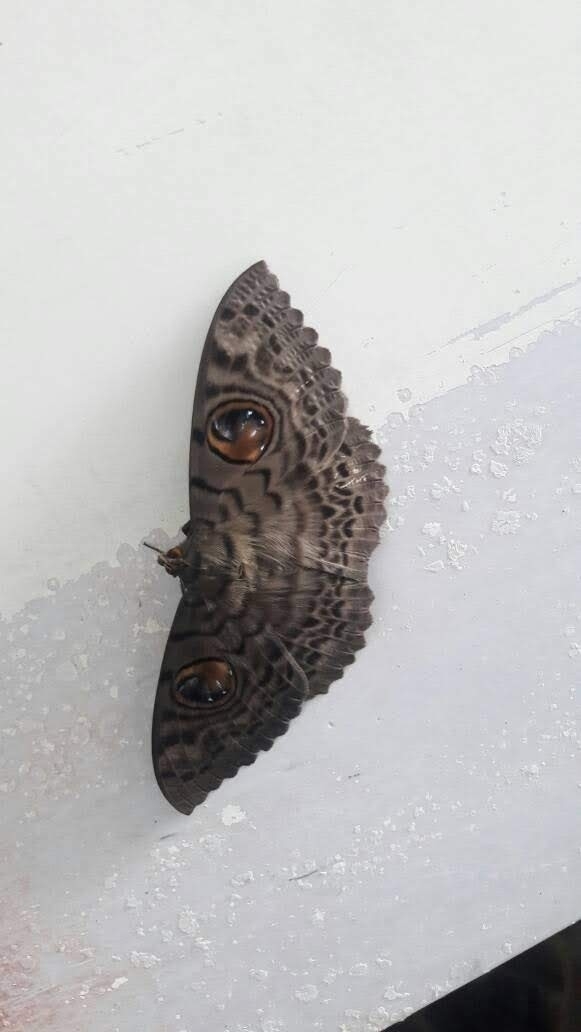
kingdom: Animalia
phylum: Arthropoda
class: Insecta
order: Lepidoptera
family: Erebidae
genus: Erebus
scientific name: Erebus macrops
